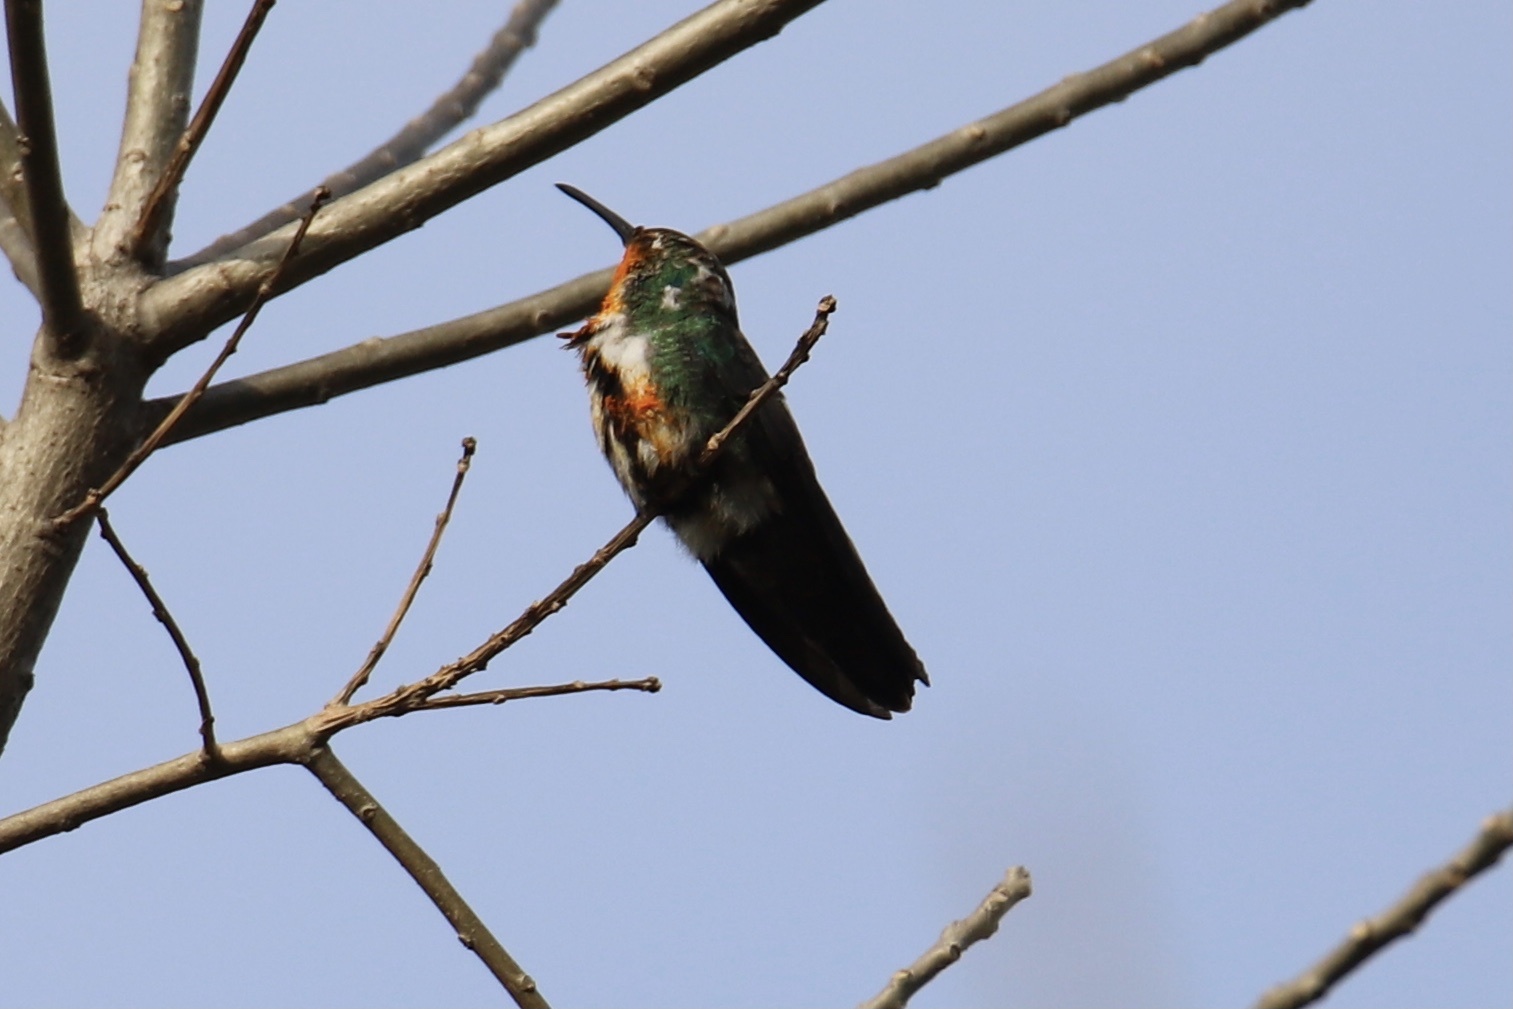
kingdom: Animalia
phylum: Chordata
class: Aves
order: Apodiformes
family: Trochilidae
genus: Anthracothorax
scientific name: Anthracothorax nigricollis
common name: Black-throated mango
